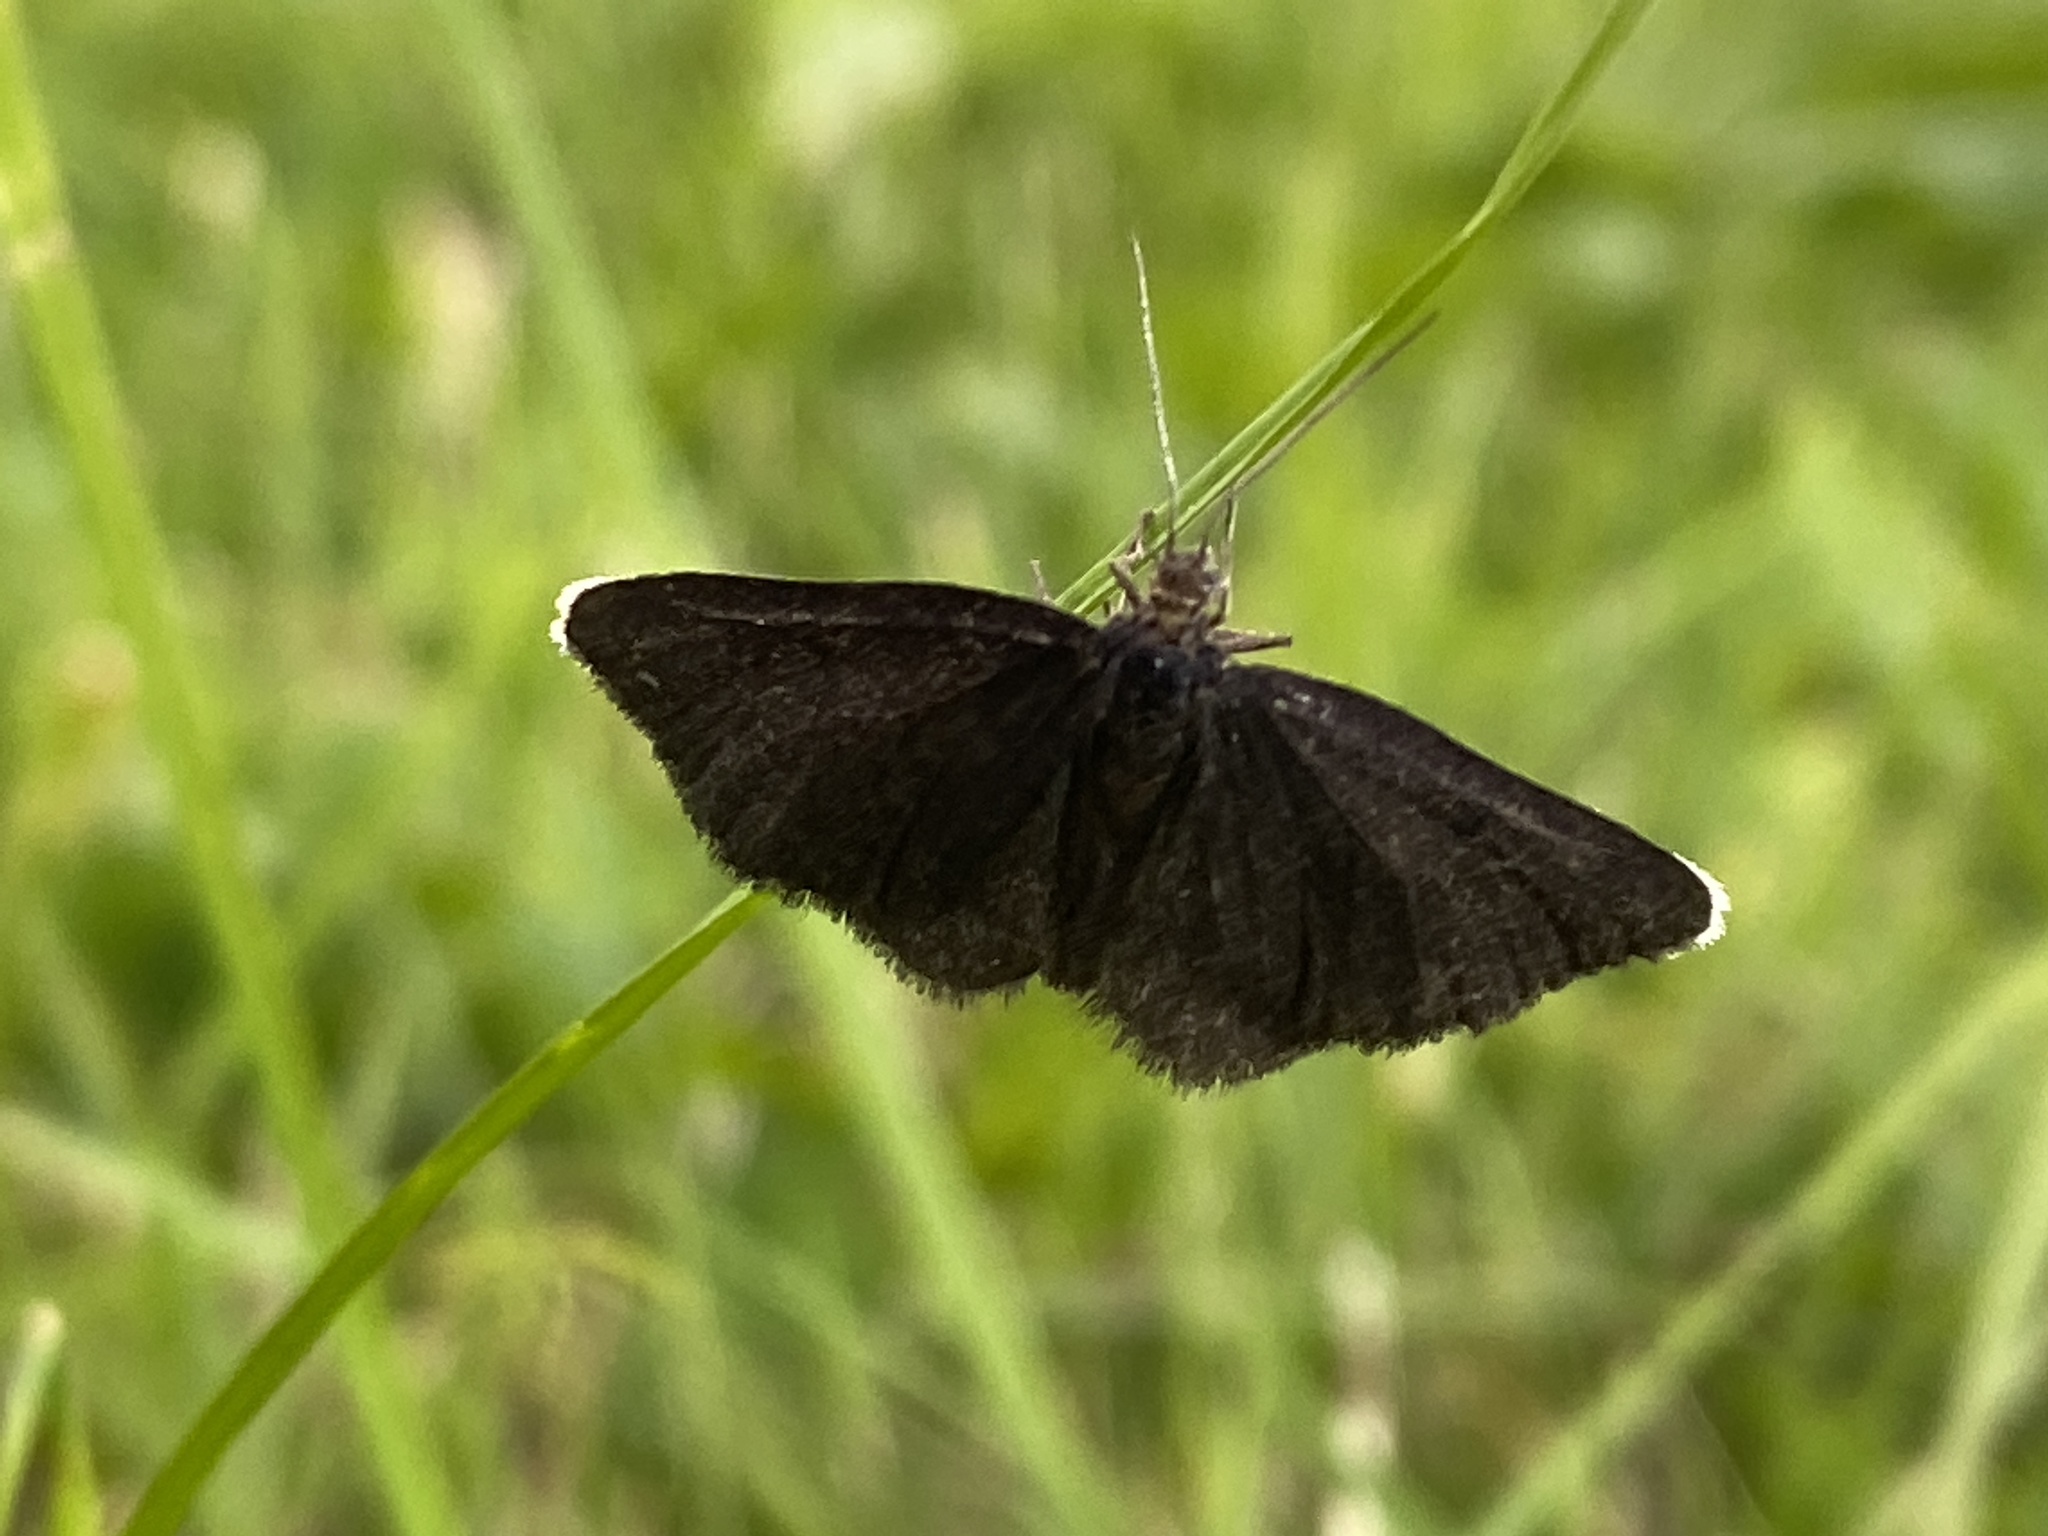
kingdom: Animalia
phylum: Arthropoda
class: Insecta
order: Lepidoptera
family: Geometridae
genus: Odezia
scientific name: Odezia atrata
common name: Chimney sweeper
